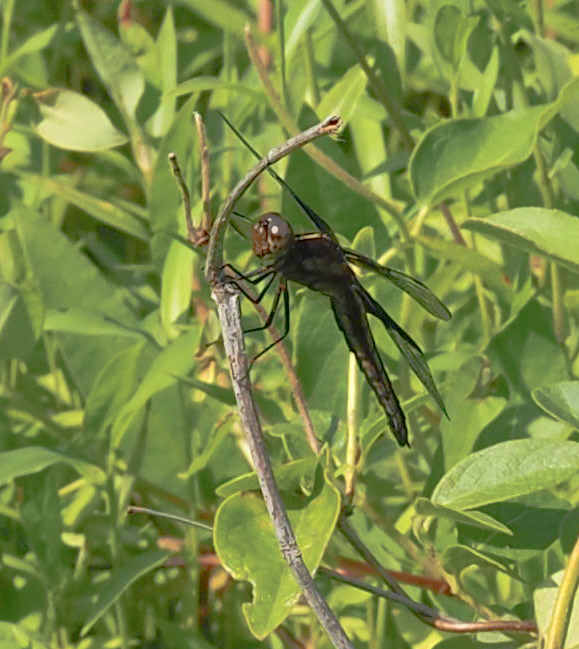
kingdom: Animalia
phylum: Arthropoda
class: Insecta
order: Odonata
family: Libellulidae
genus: Libellula
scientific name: Libellula luctuosa
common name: Widow skimmer
